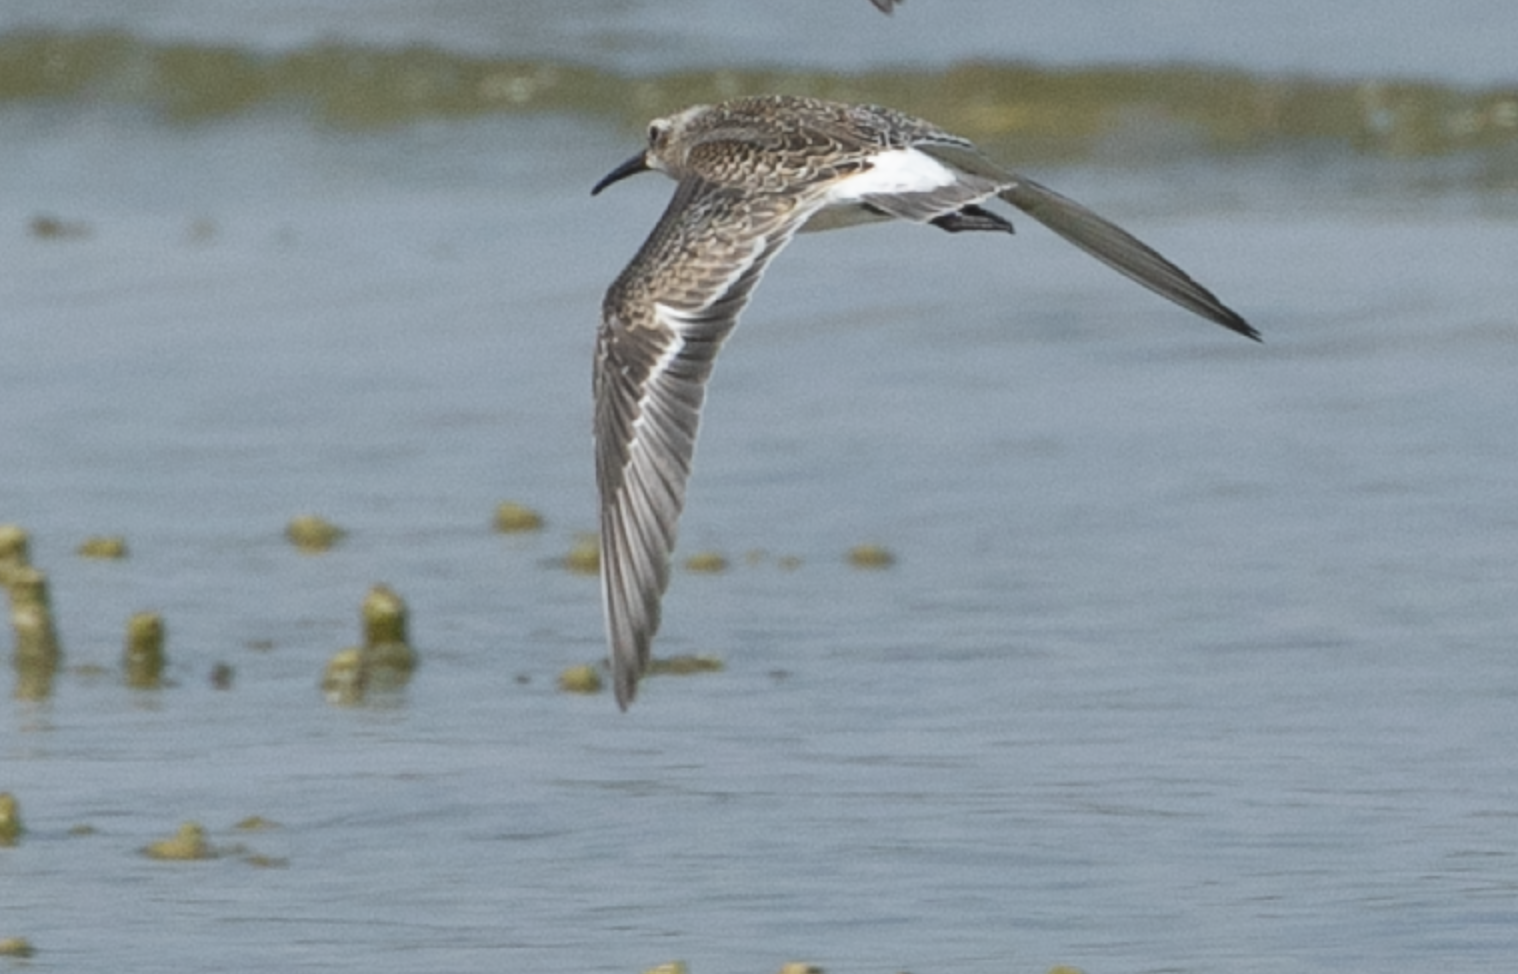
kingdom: Animalia
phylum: Chordata
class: Aves
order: Charadriiformes
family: Scolopacidae
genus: Calidris
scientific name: Calidris ferruginea
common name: Curlew sandpiper
